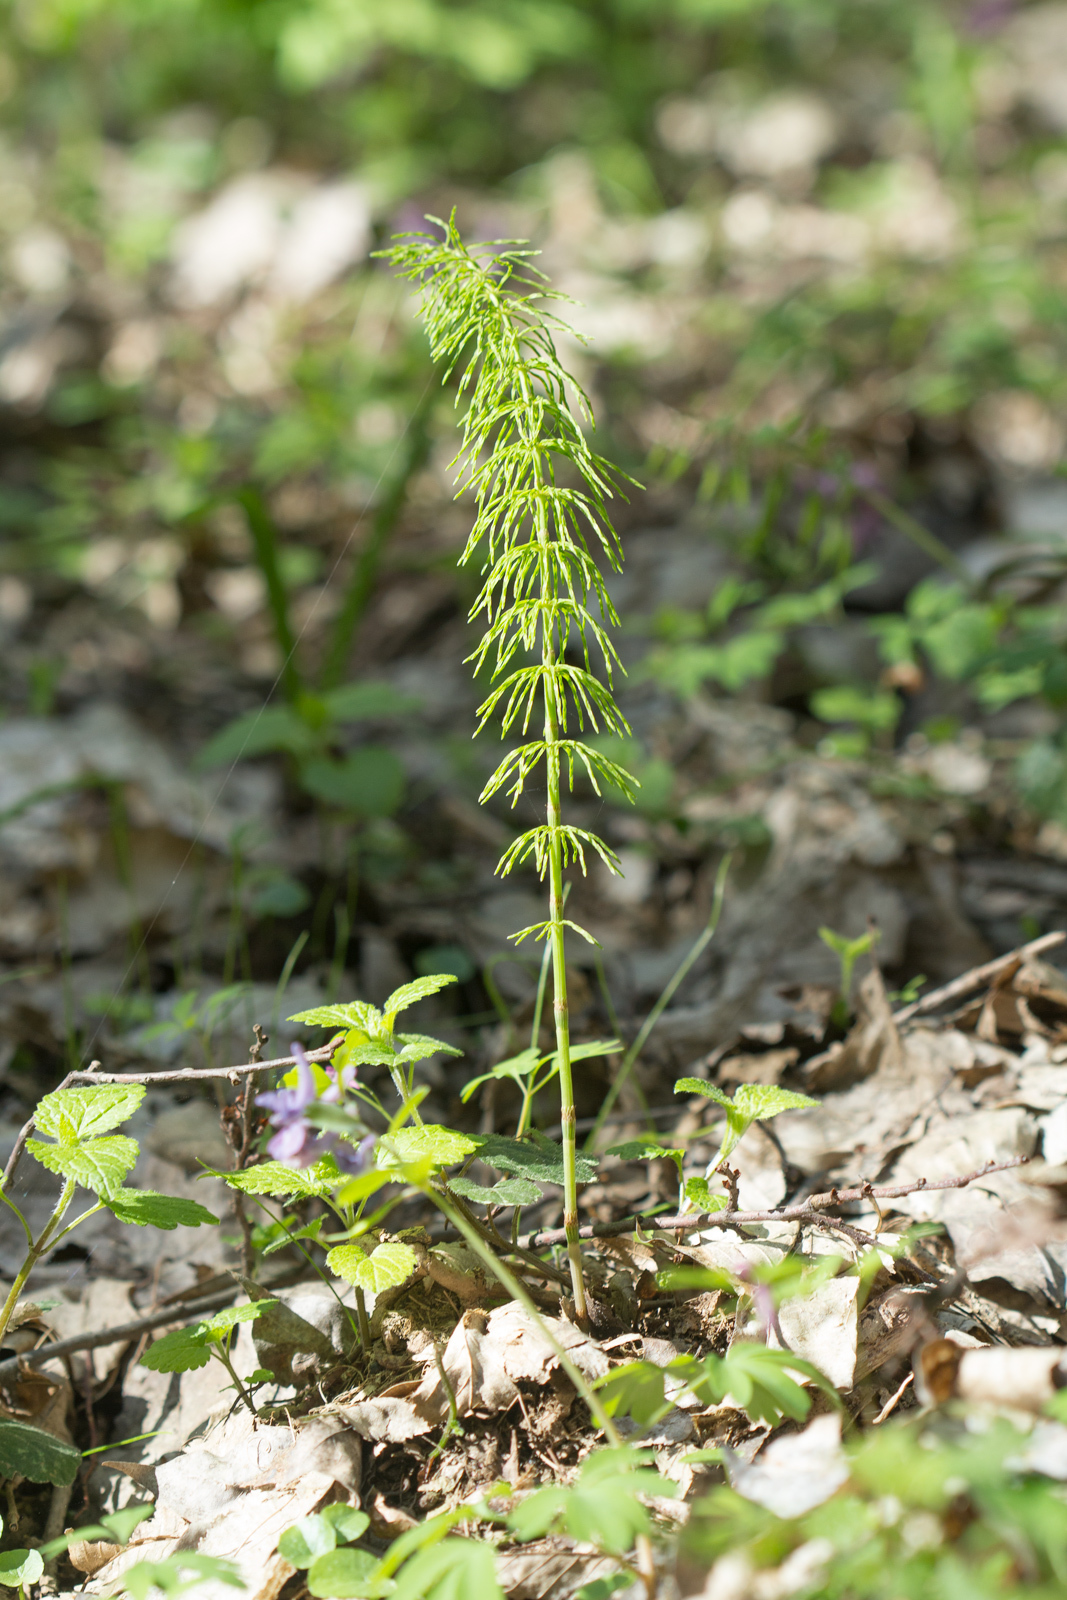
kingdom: Plantae
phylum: Tracheophyta
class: Polypodiopsida
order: Equisetales
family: Equisetaceae
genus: Equisetum
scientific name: Equisetum pratense
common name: Meadow horsetail
